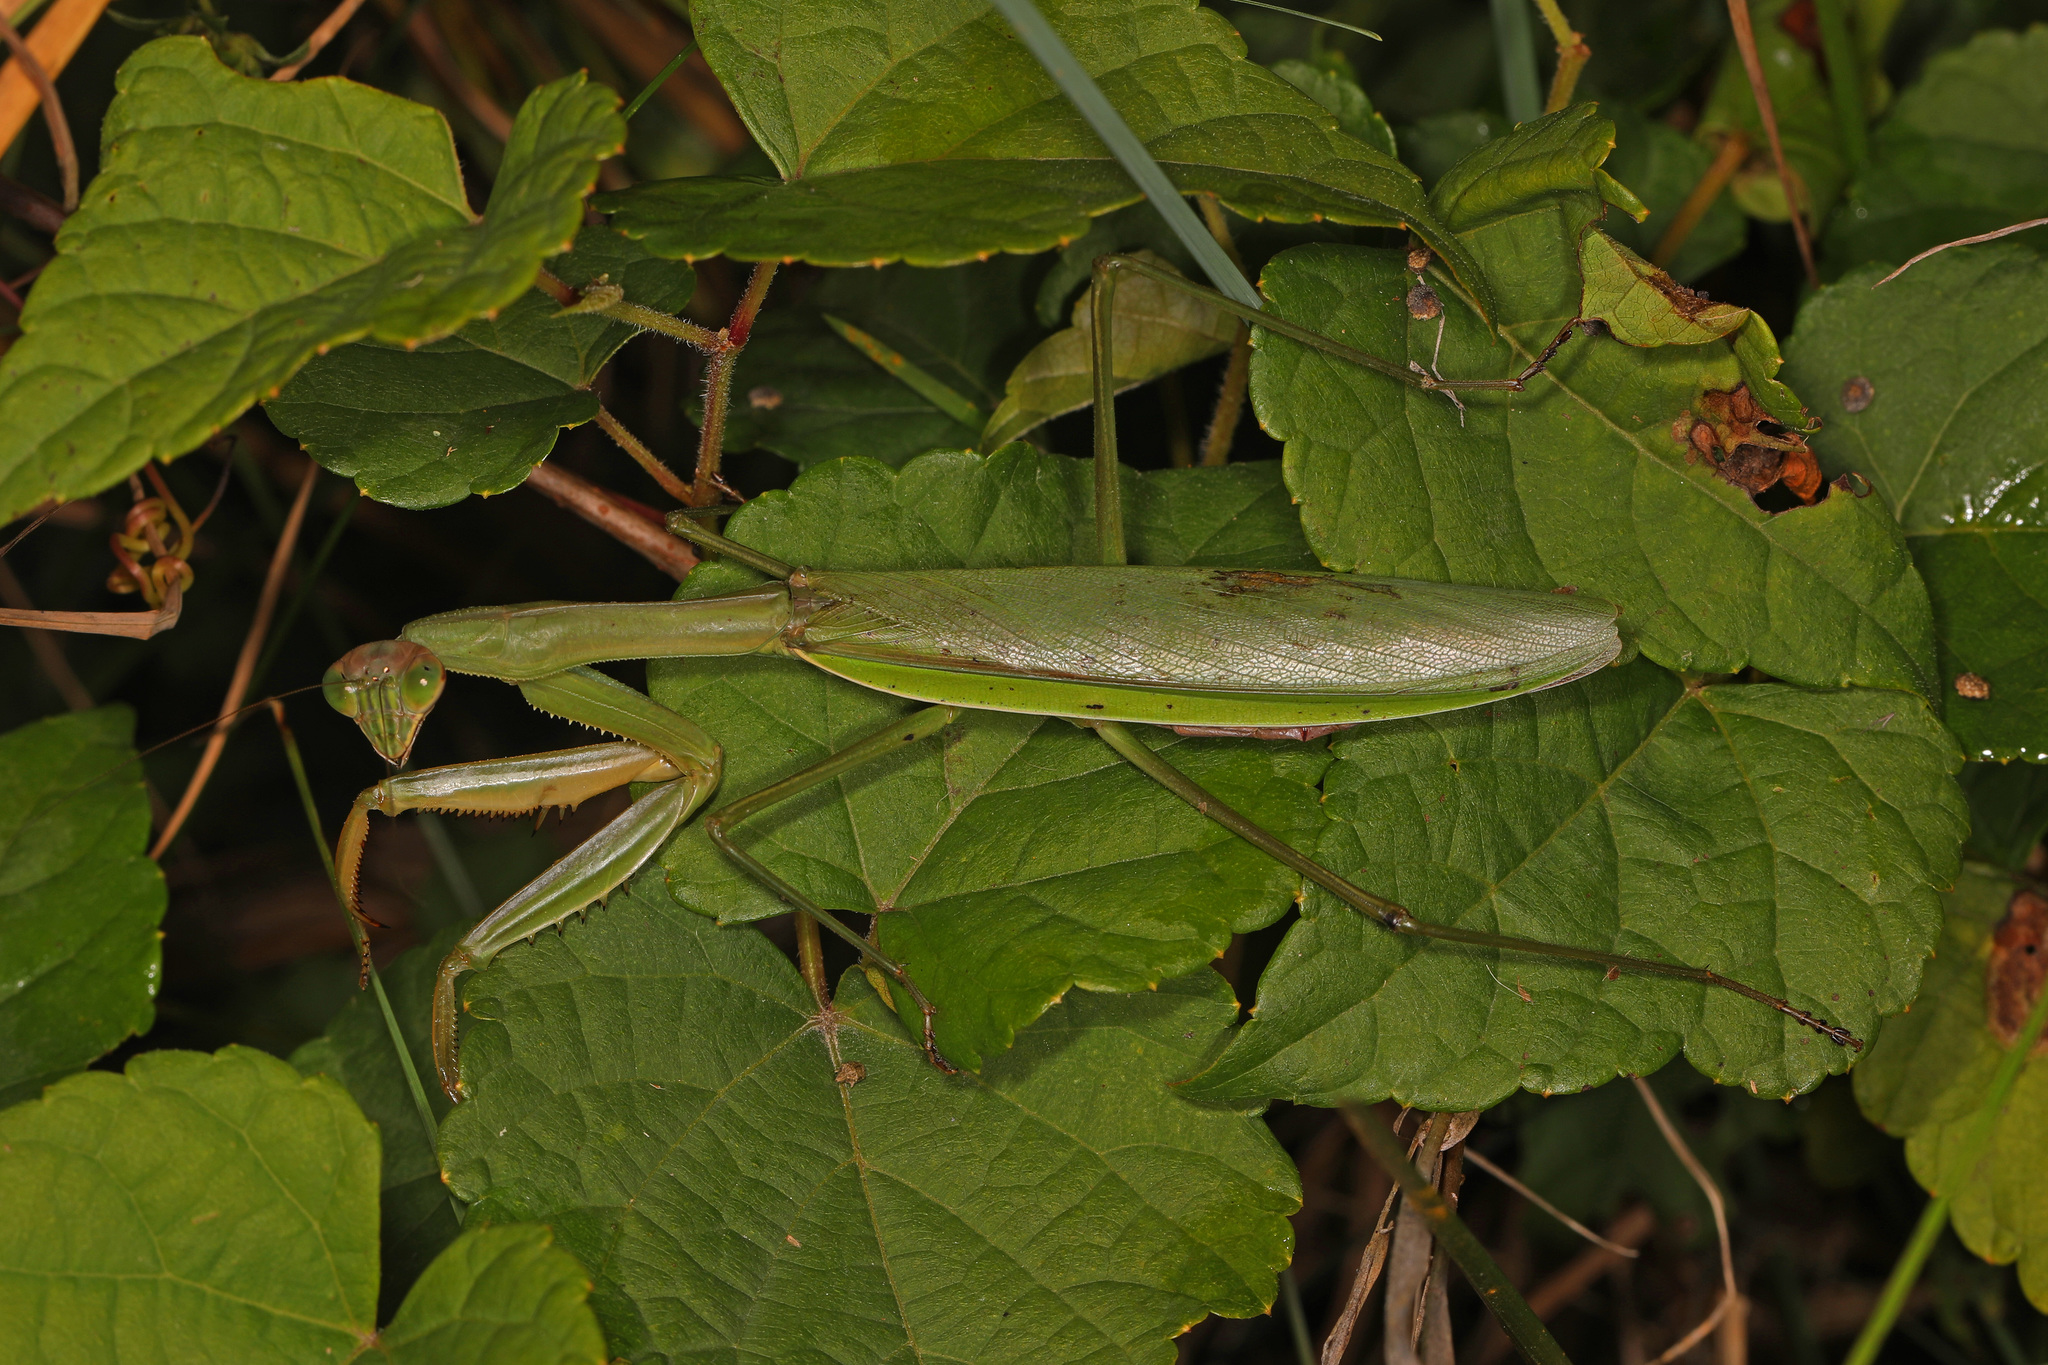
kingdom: Animalia
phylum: Arthropoda
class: Insecta
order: Mantodea
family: Mantidae
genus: Tenodera
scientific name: Tenodera sinensis
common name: Chinese mantis
